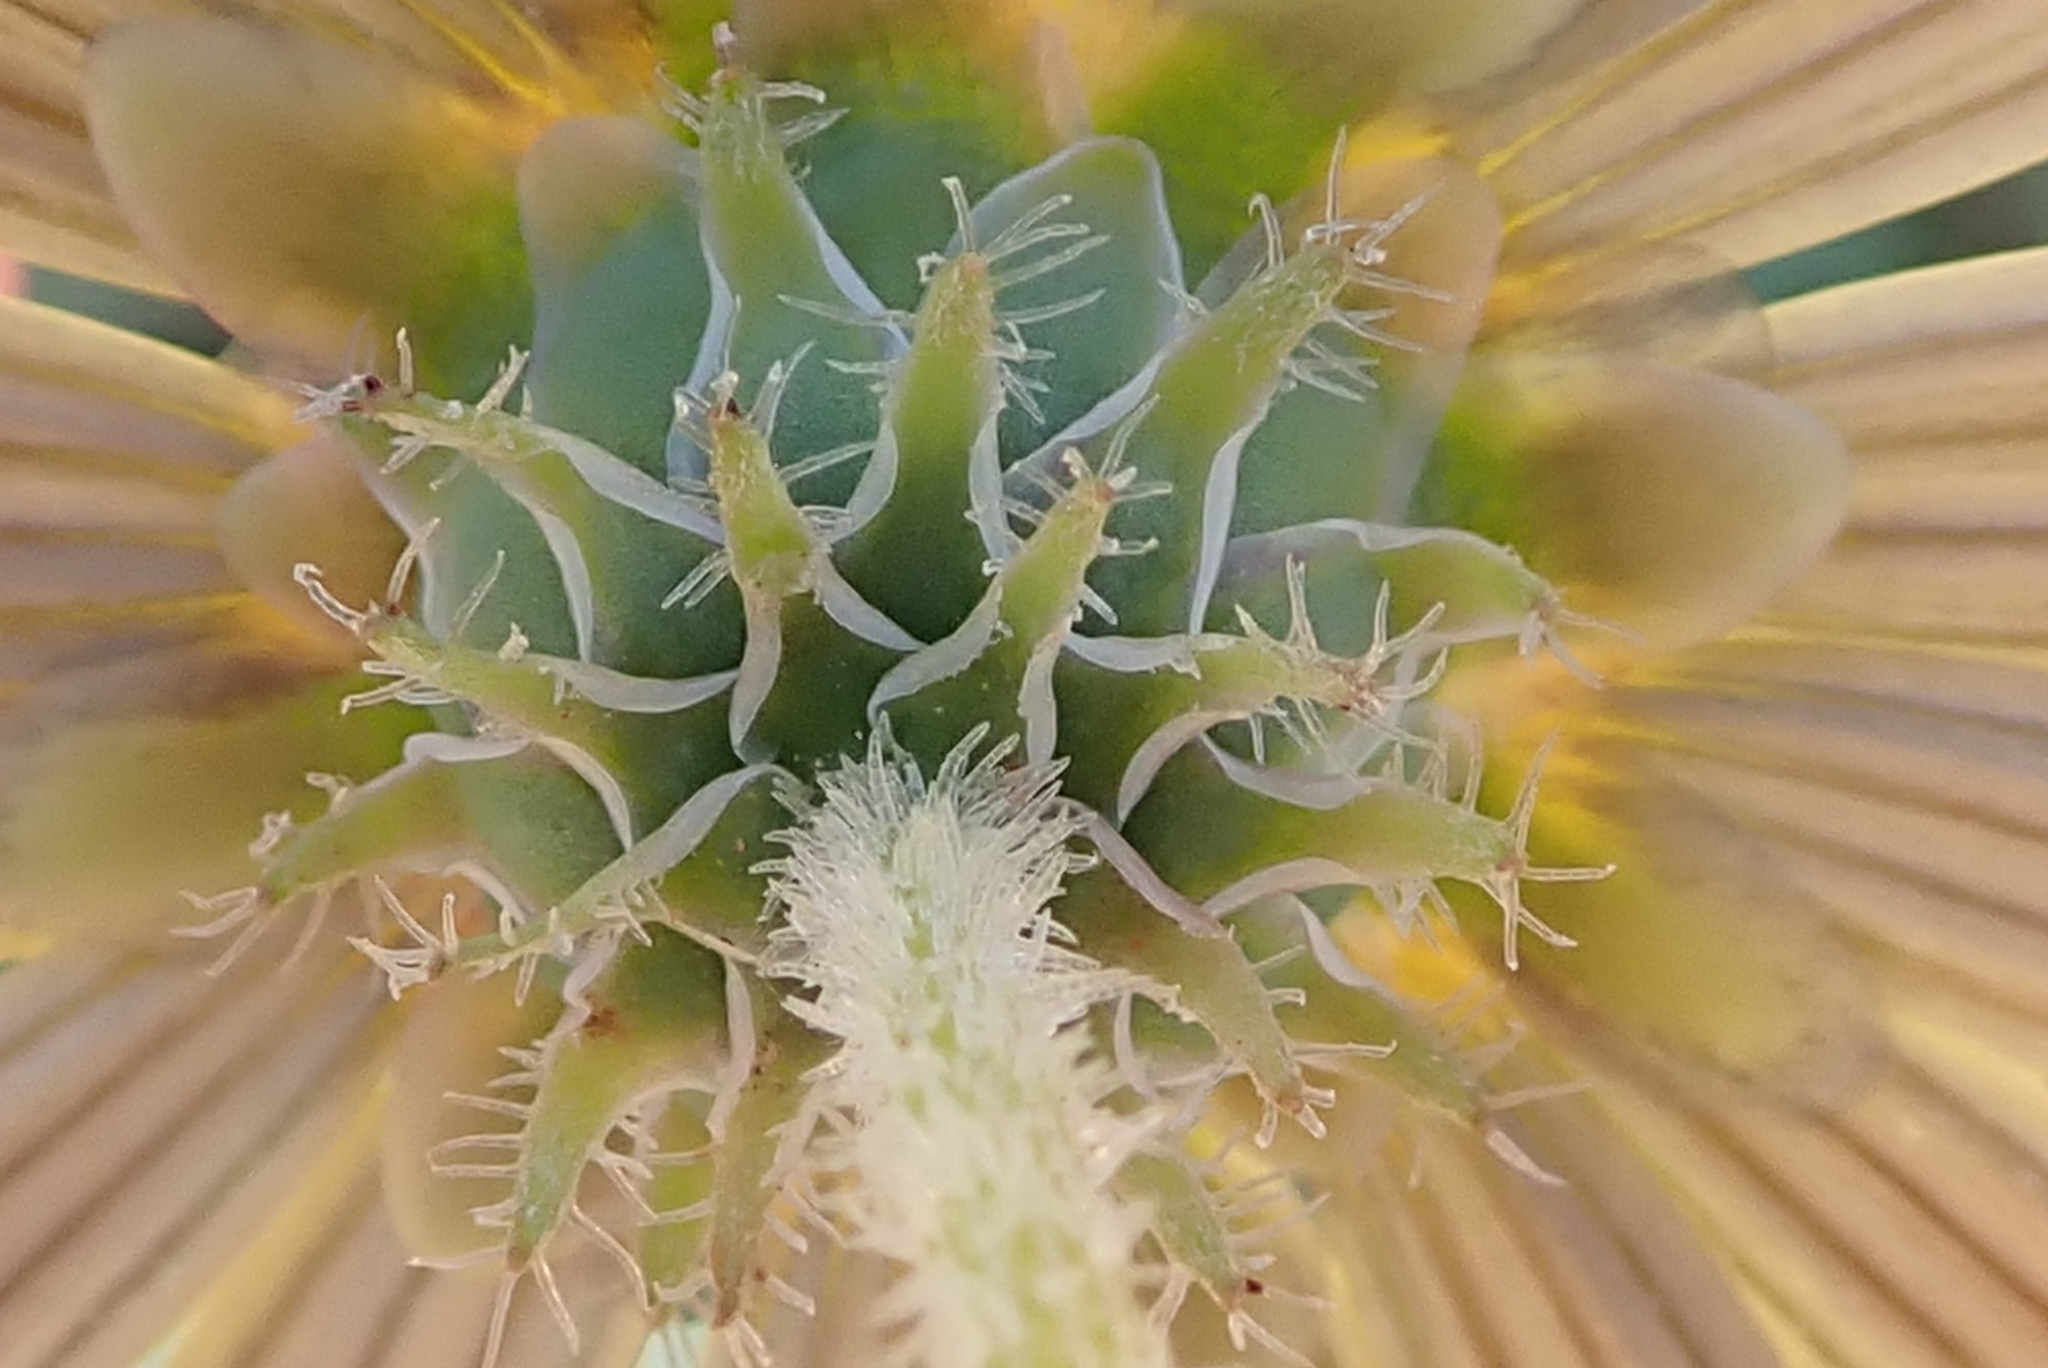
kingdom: Plantae
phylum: Tracheophyta
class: Magnoliopsida
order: Asterales
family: Asteraceae
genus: Arctotheca
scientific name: Arctotheca calendula
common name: Capeweed
